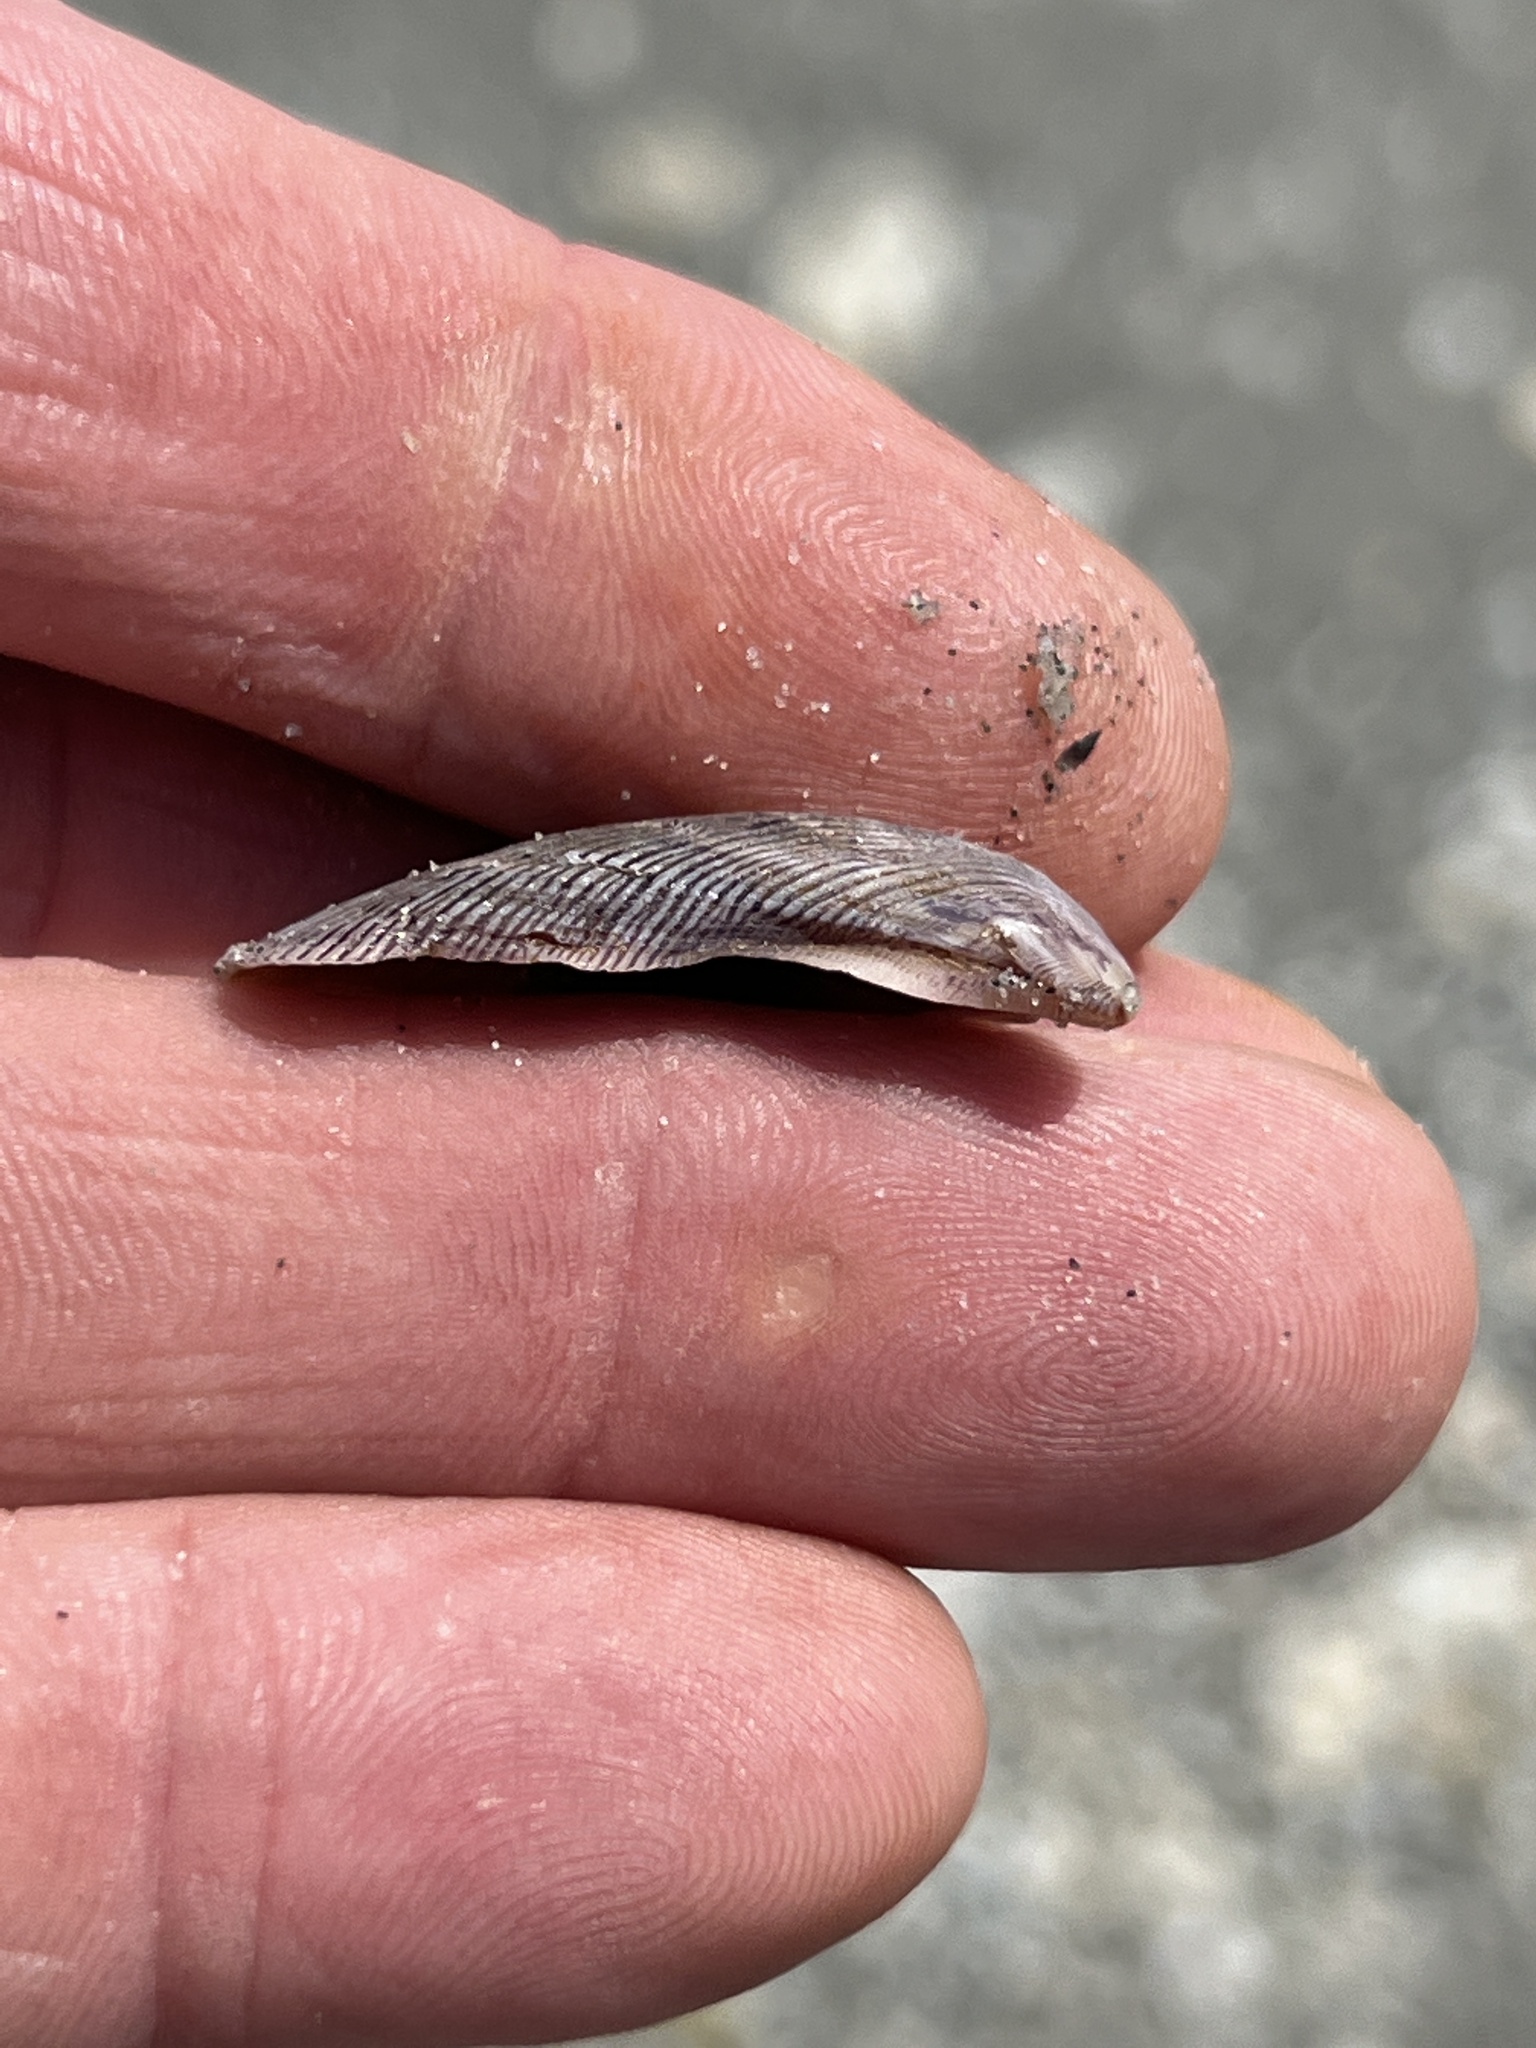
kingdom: Animalia
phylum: Mollusca
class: Bivalvia
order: Mytilida
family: Mytilidae
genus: Ischadium
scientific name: Ischadium recurvum
